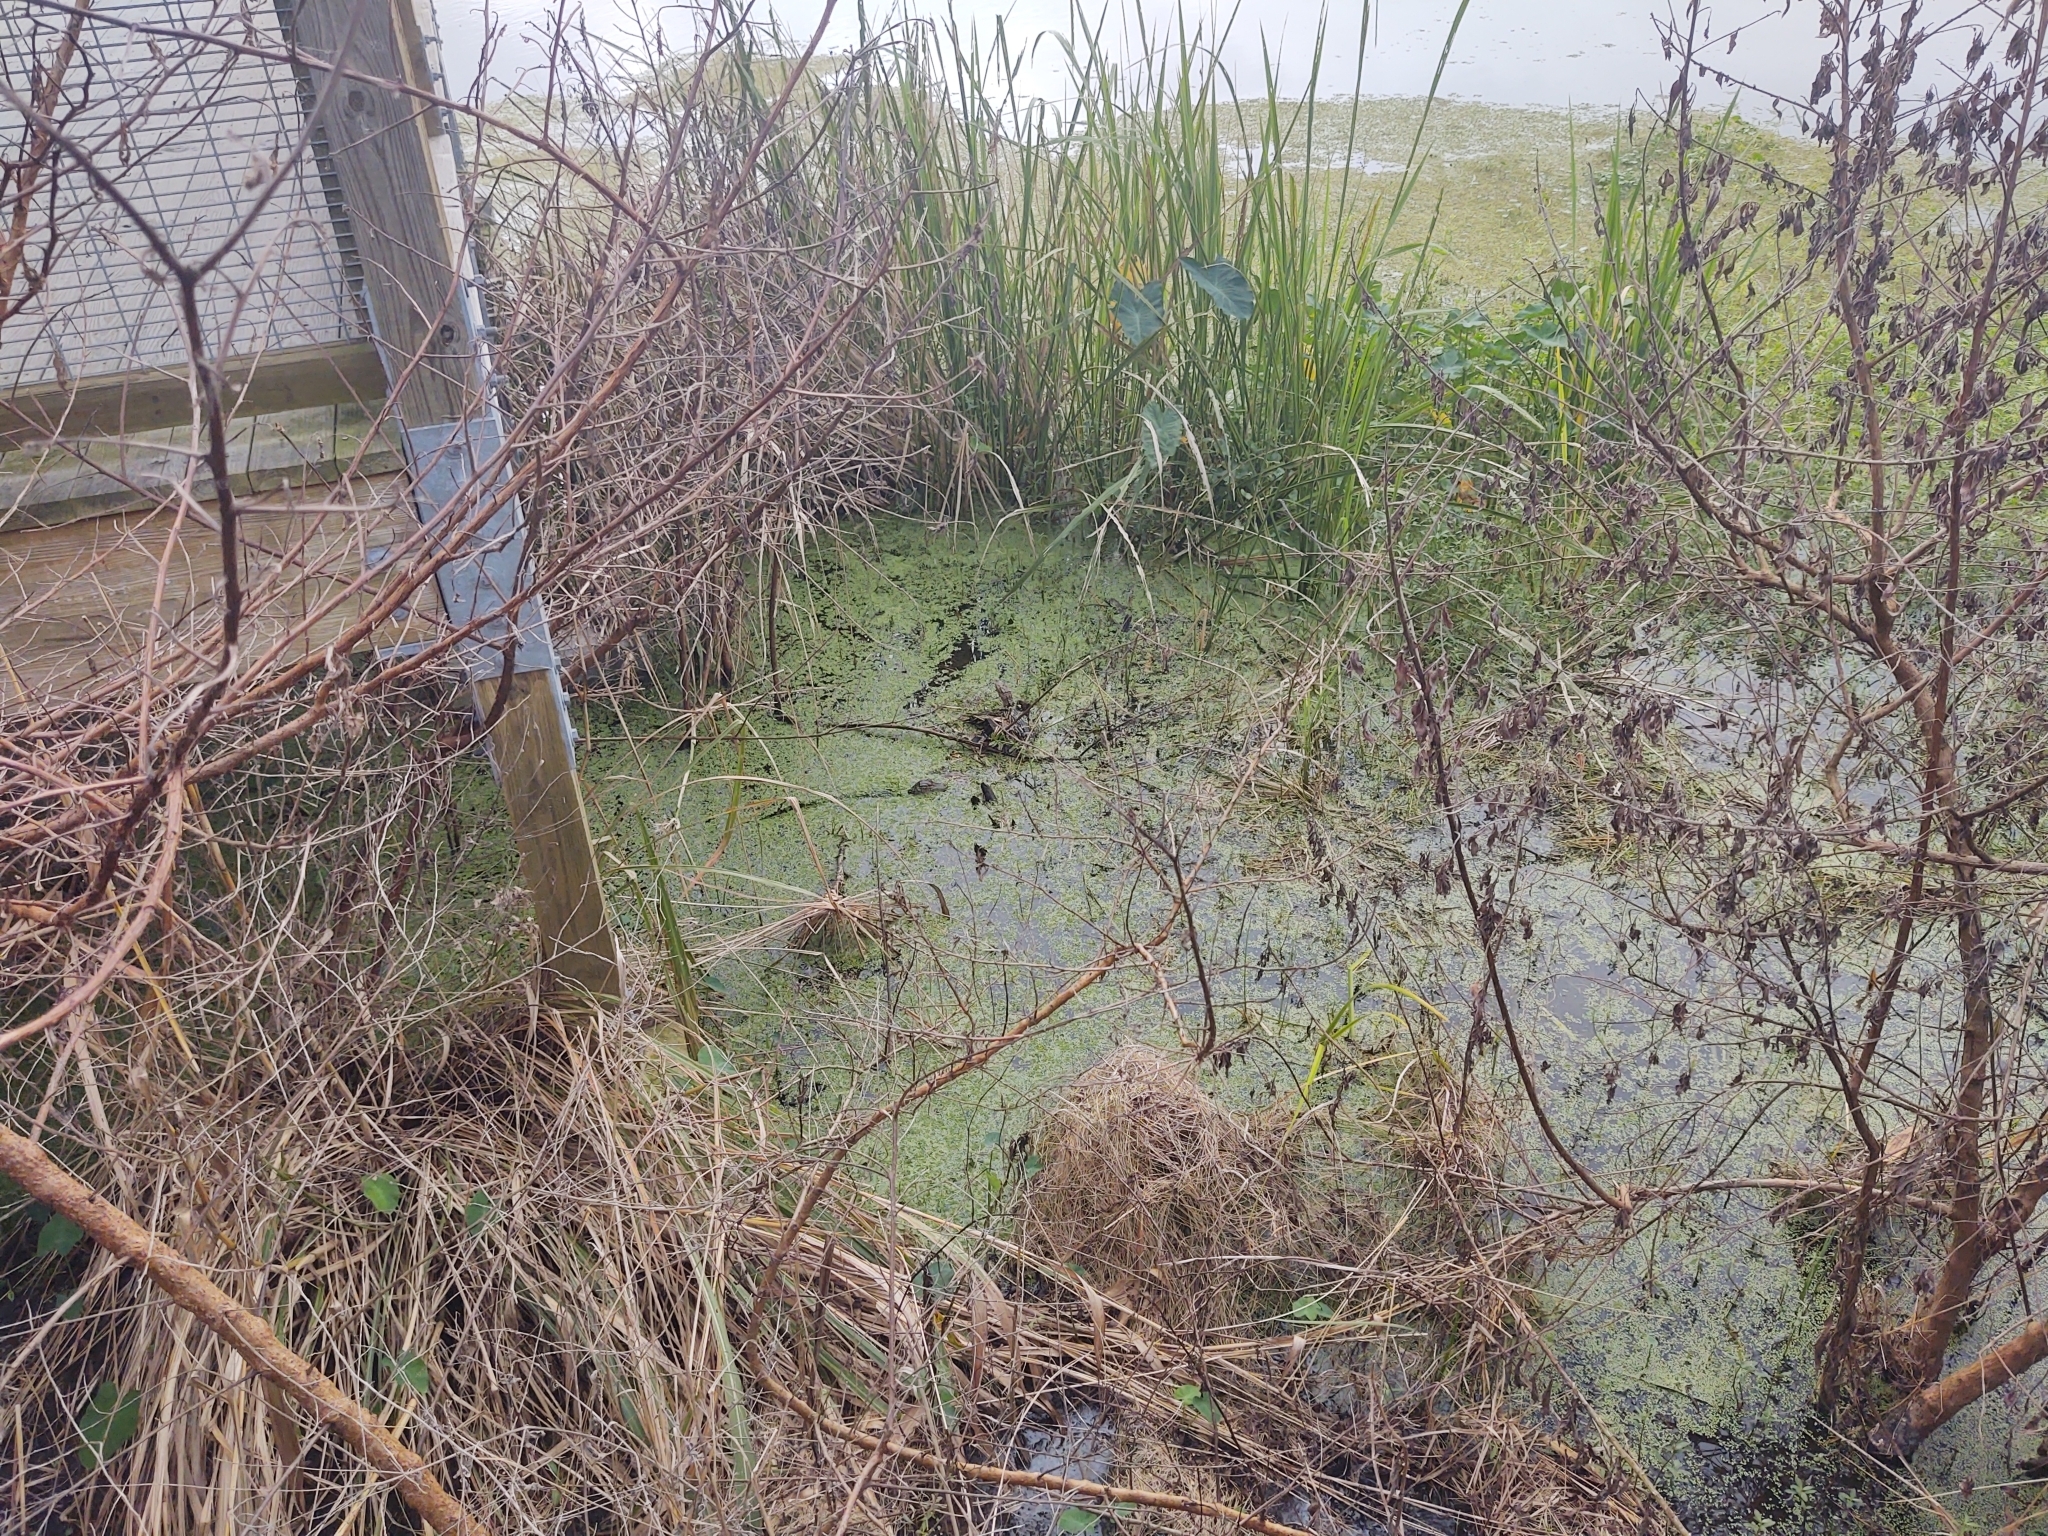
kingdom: Animalia
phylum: Chordata
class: Crocodylia
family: Alligatoridae
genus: Alligator
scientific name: Alligator mississippiensis
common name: American alligator
